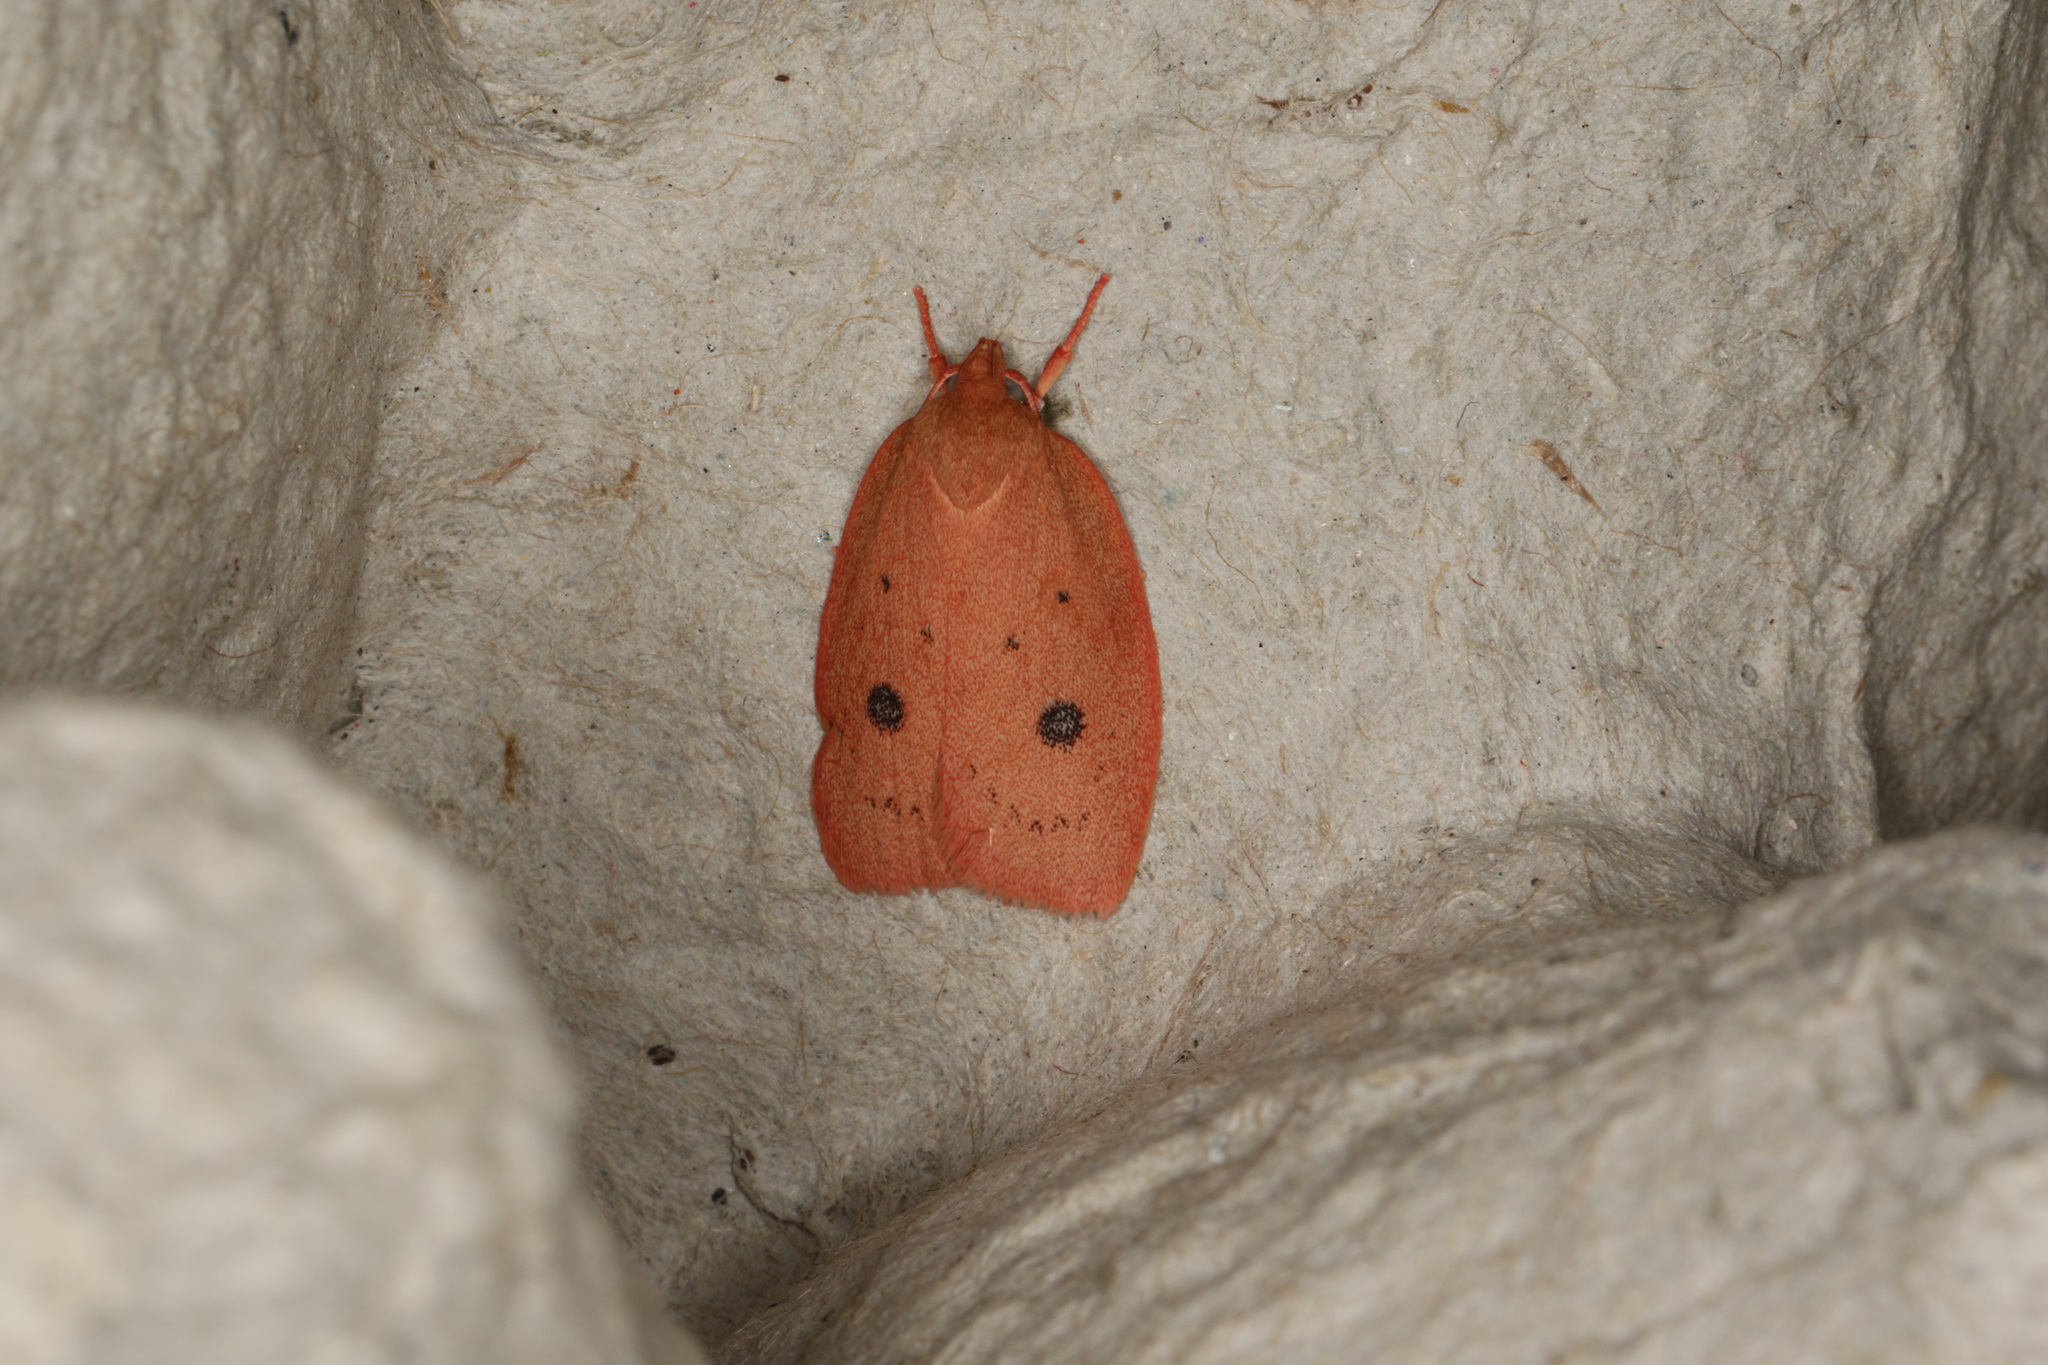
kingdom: Animalia
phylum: Arthropoda
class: Insecta
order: Lepidoptera
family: Oecophoridae
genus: Garrha
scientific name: Garrha pudica
